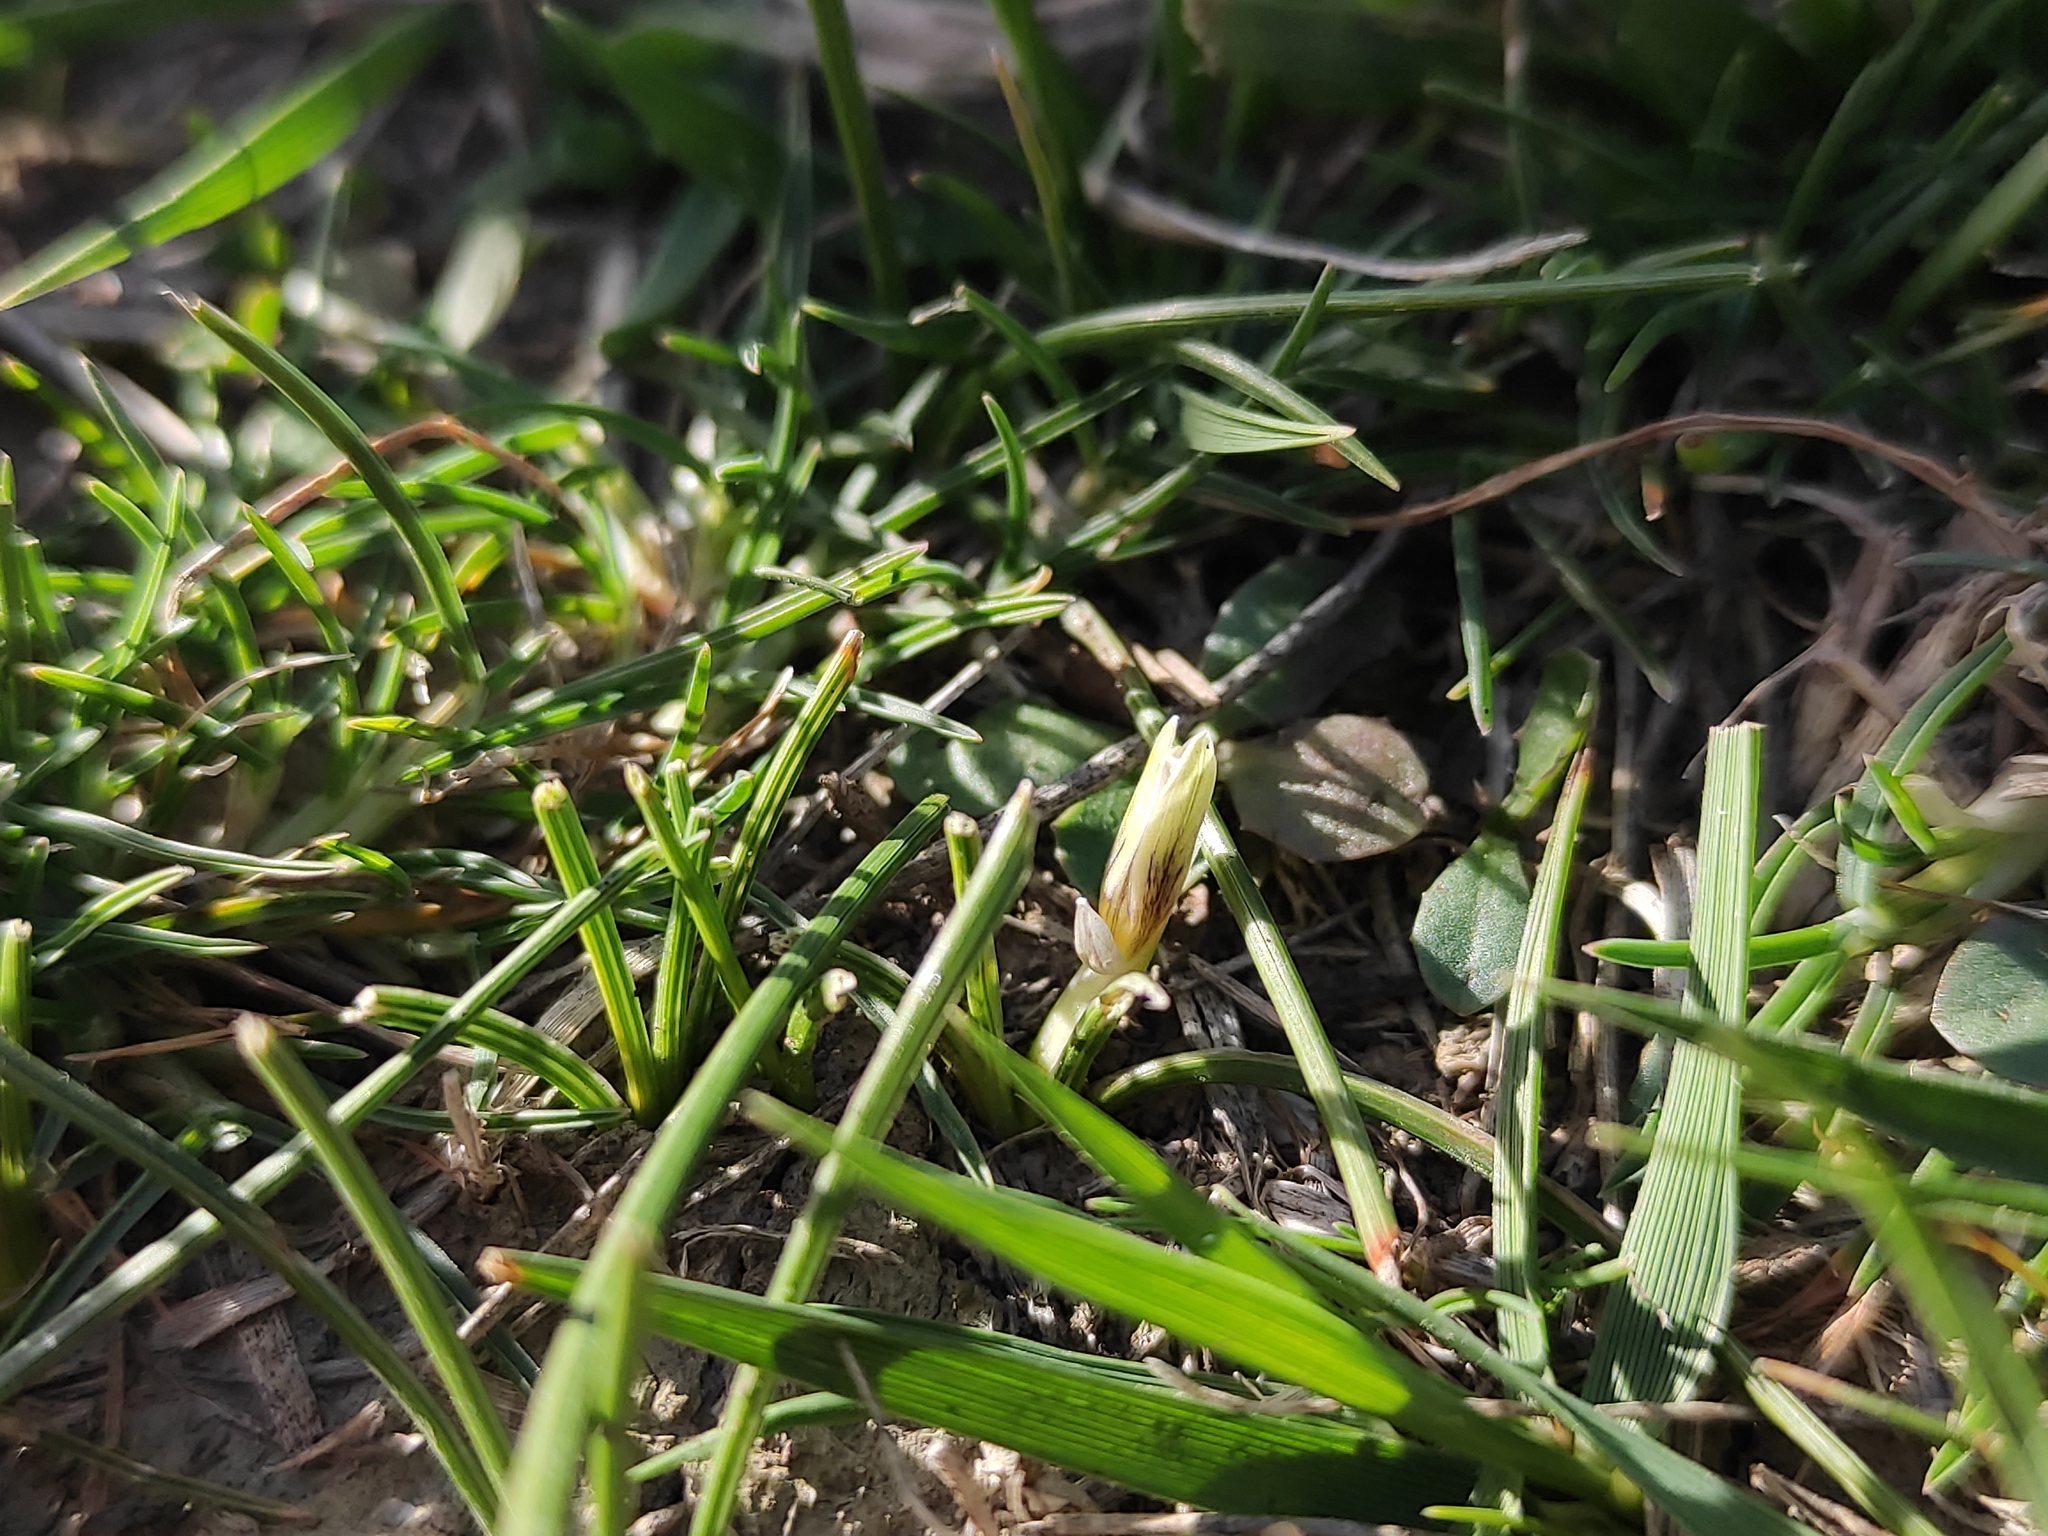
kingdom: Plantae
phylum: Tracheophyta
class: Liliopsida
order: Asparagales
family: Iridaceae
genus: Romulea
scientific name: Romulea columnae
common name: Sand-crocus
